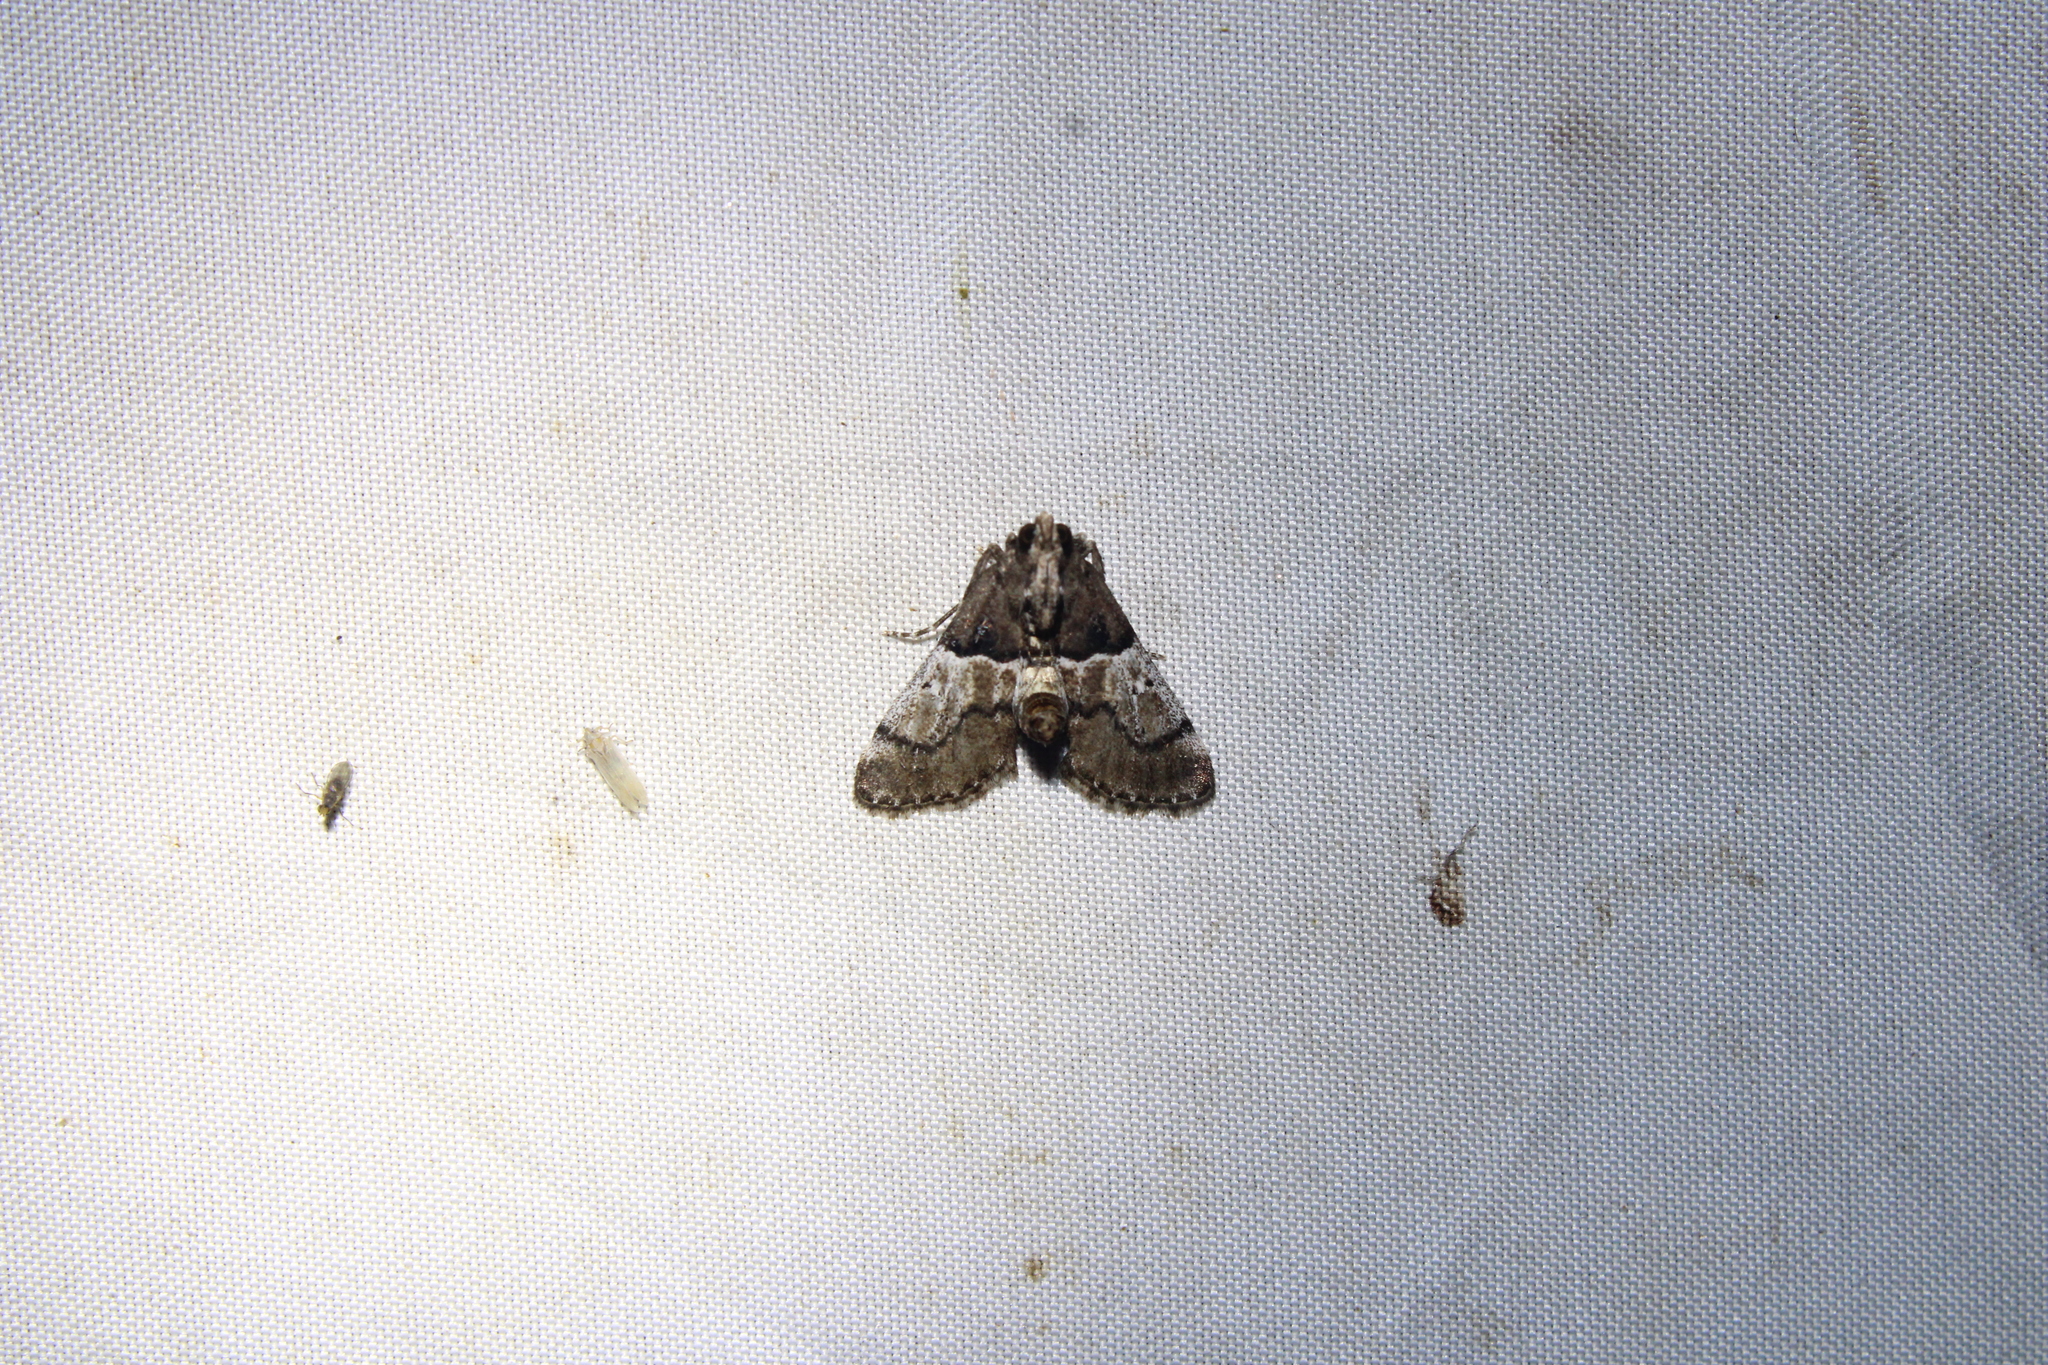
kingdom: Animalia
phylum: Arthropoda
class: Insecta
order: Lepidoptera
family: Pyralidae
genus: Macalla
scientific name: Macalla zelleri
